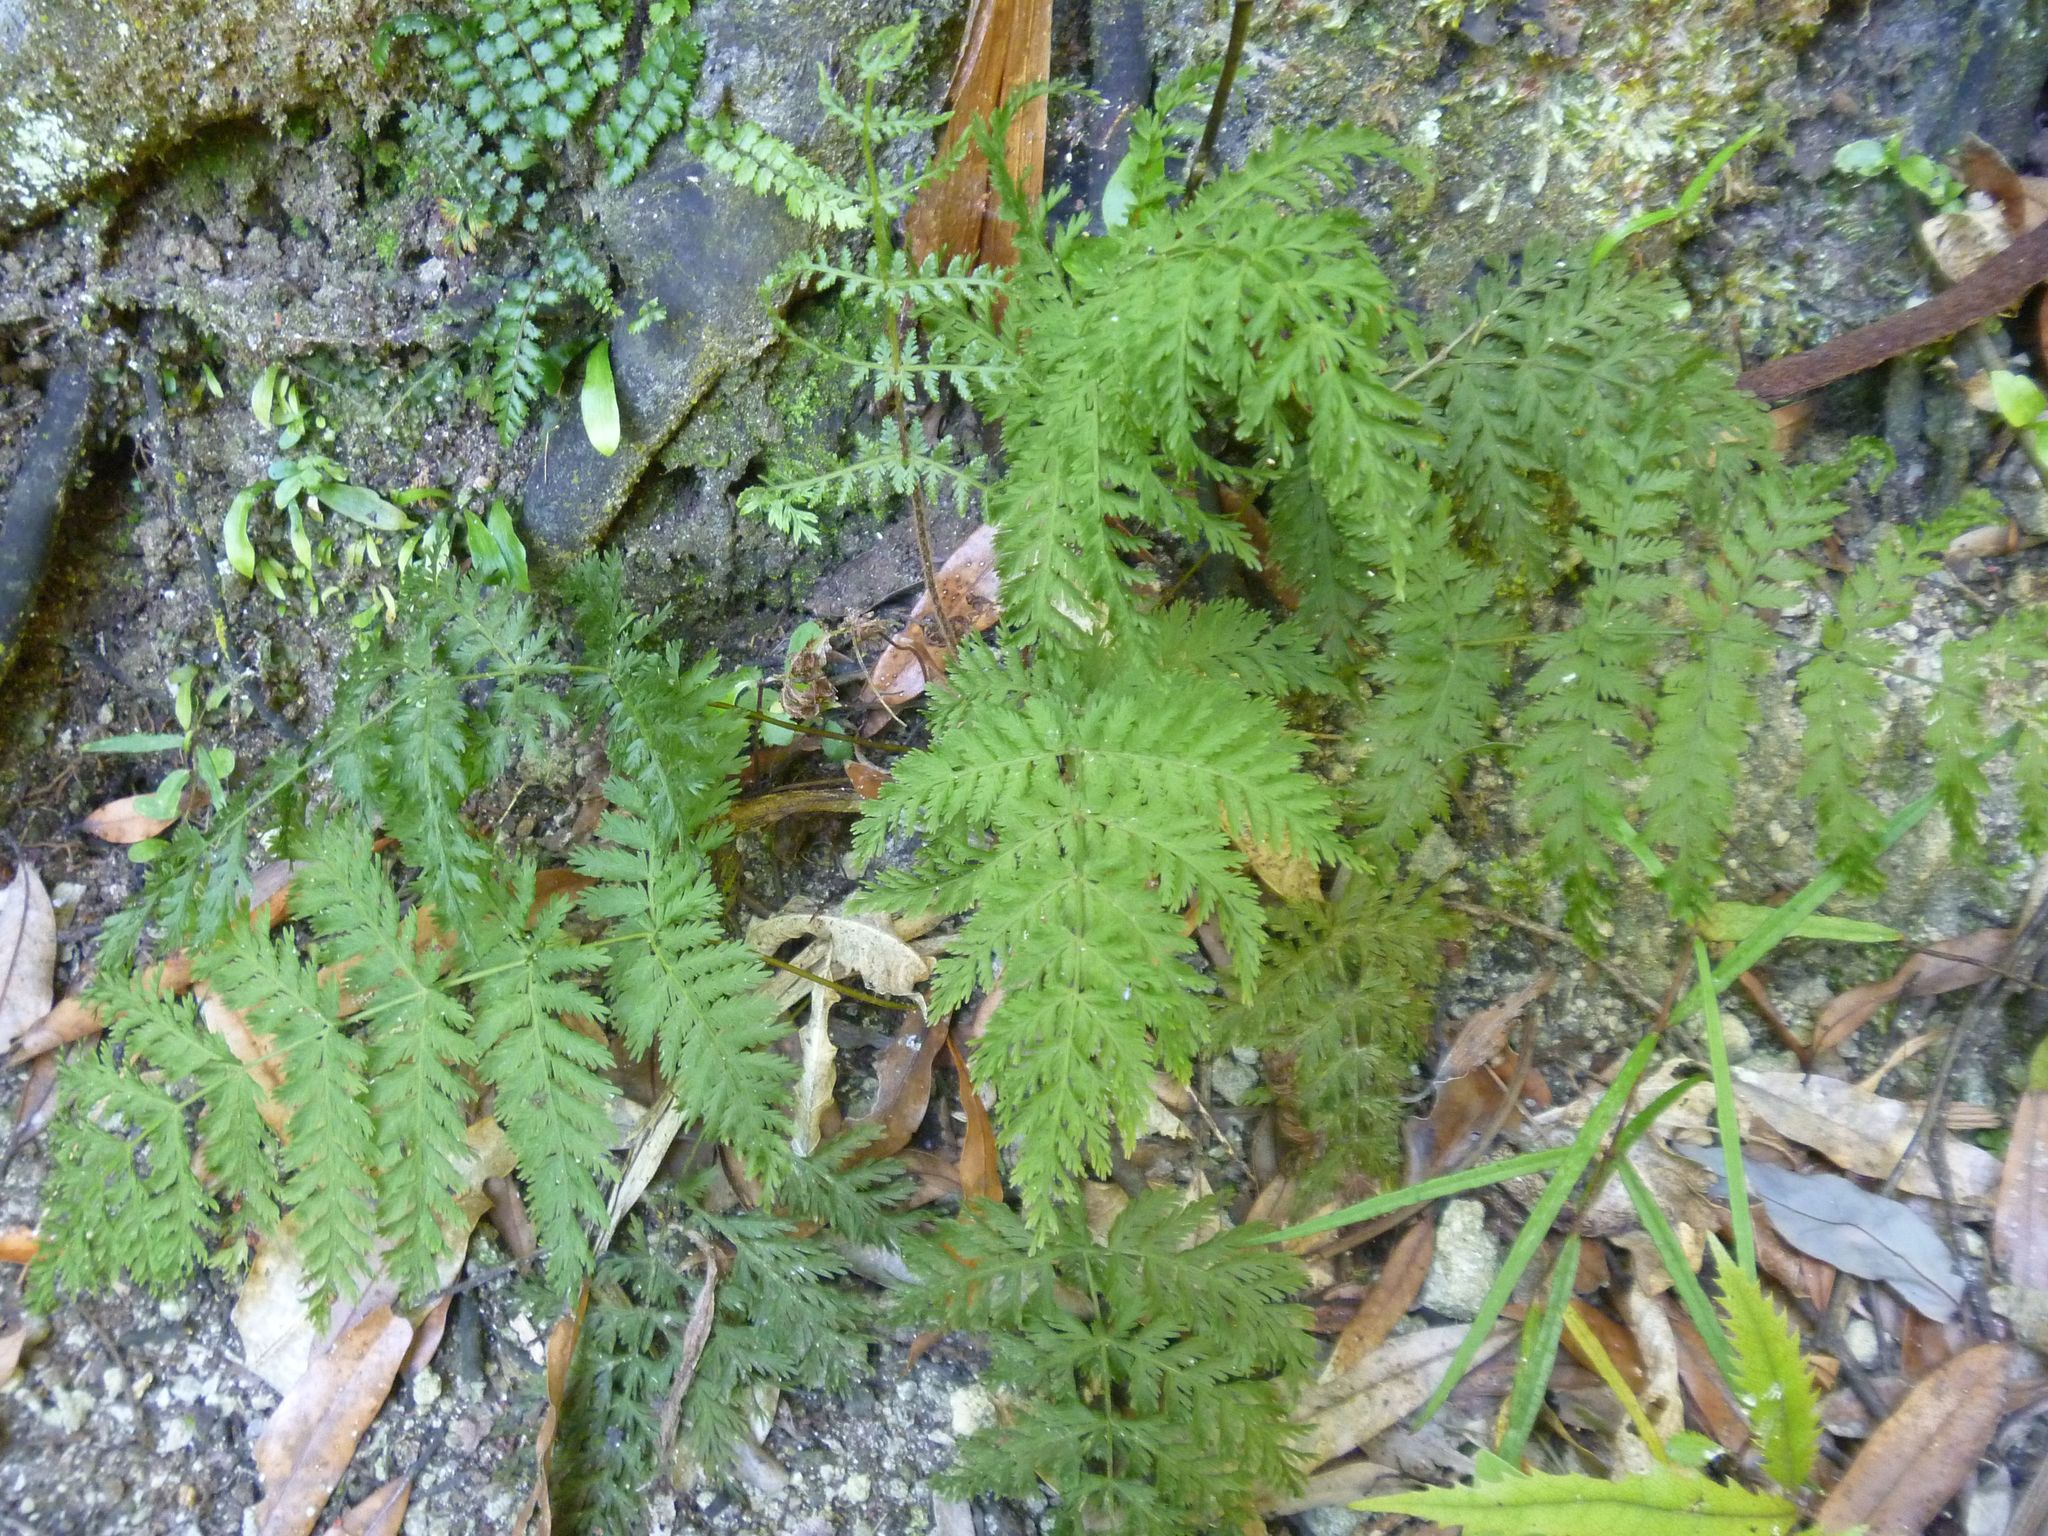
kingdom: Plantae
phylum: Tracheophyta
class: Polypodiopsida
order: Osmundales
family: Osmundaceae
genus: Leptopteris
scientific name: Leptopteris hymenophylloides
